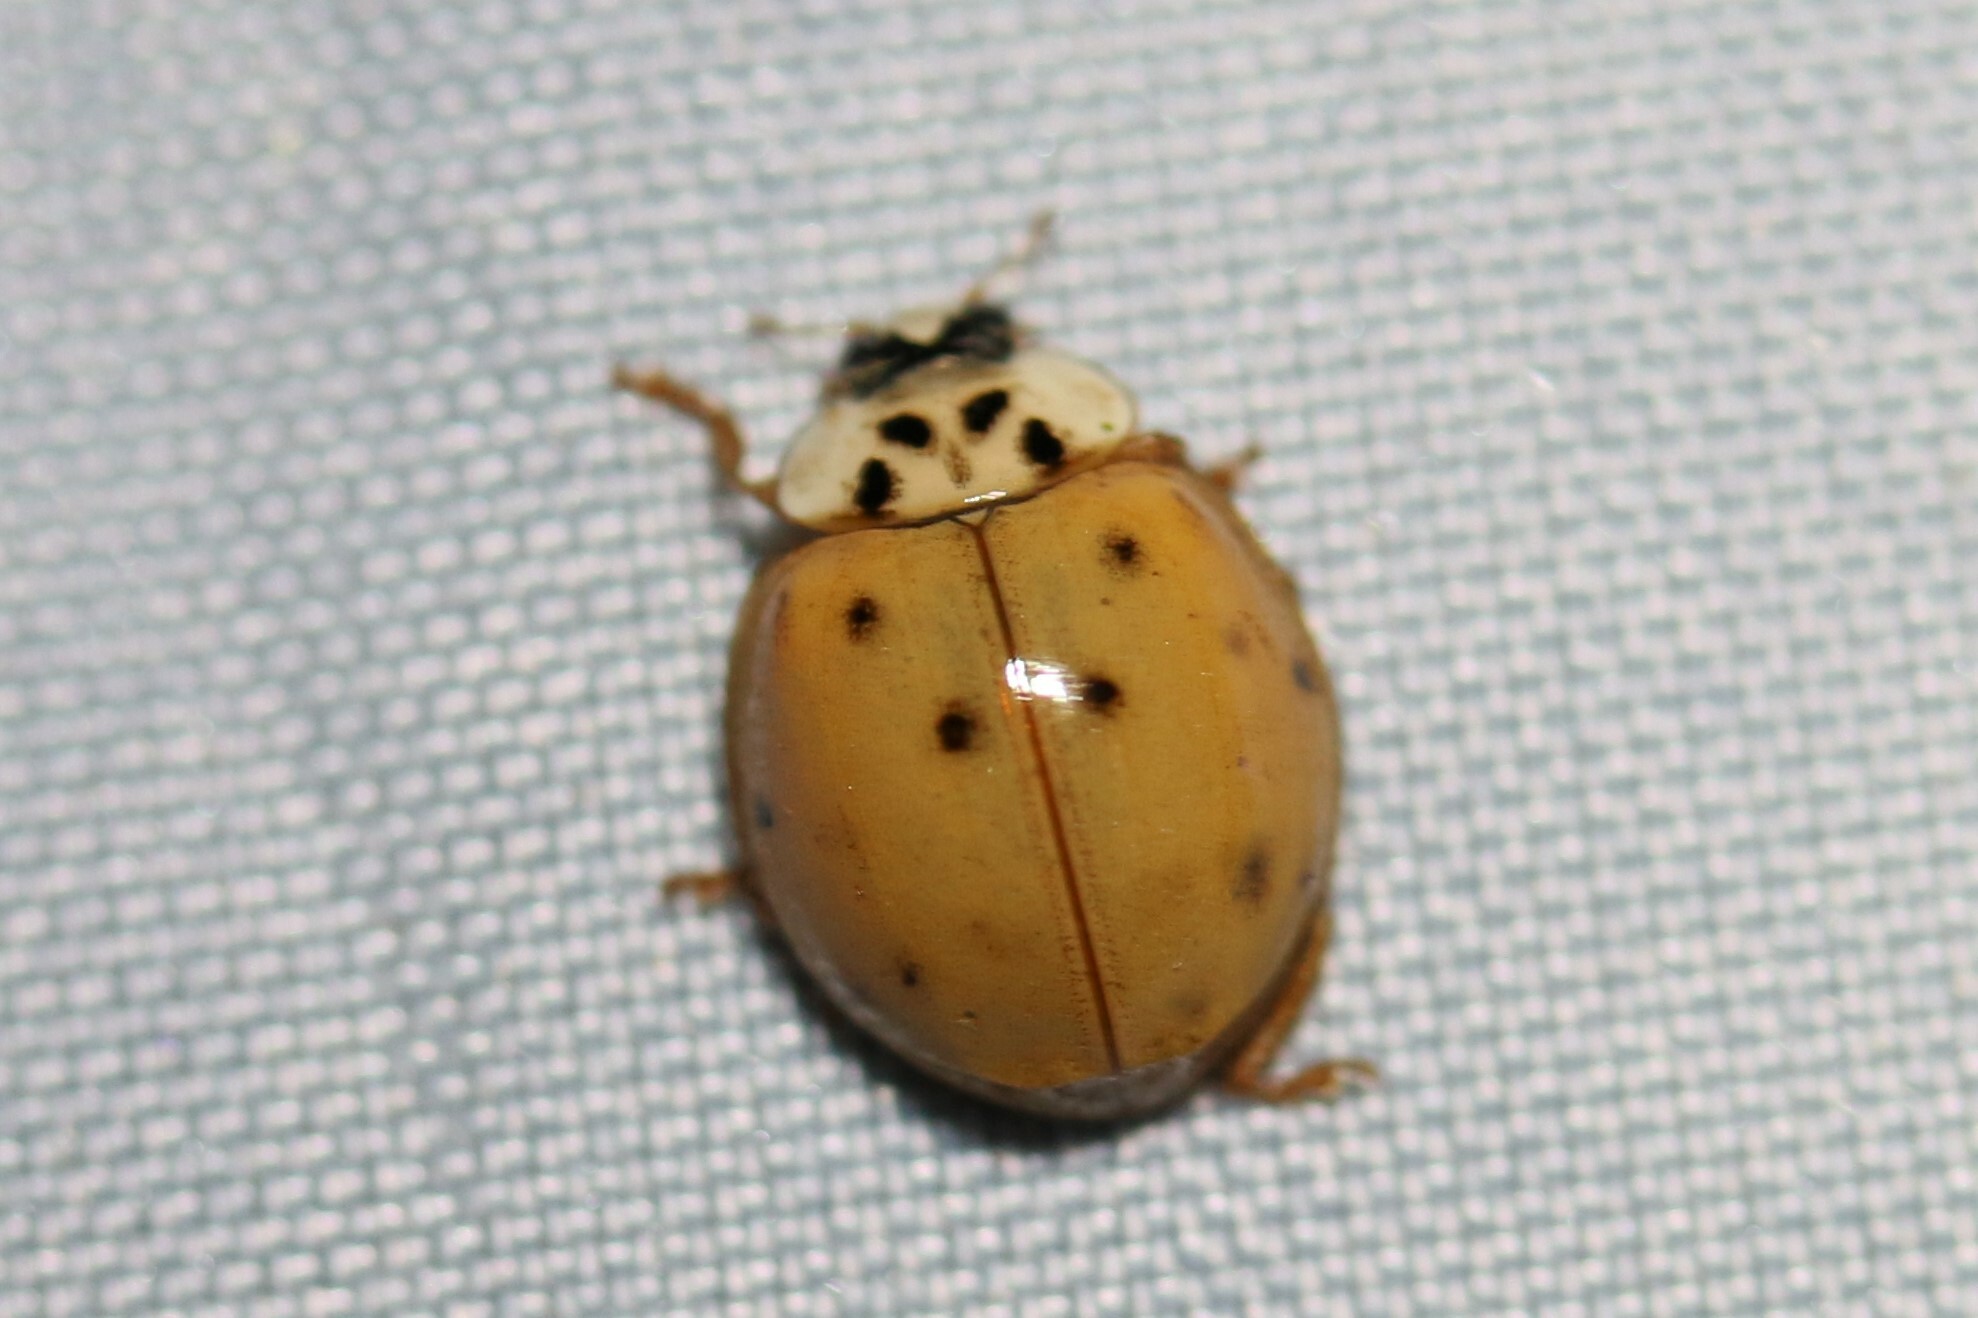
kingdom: Animalia
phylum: Arthropoda
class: Insecta
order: Coleoptera
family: Coccinellidae
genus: Harmonia
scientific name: Harmonia axyridis
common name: Harlequin ladybird
